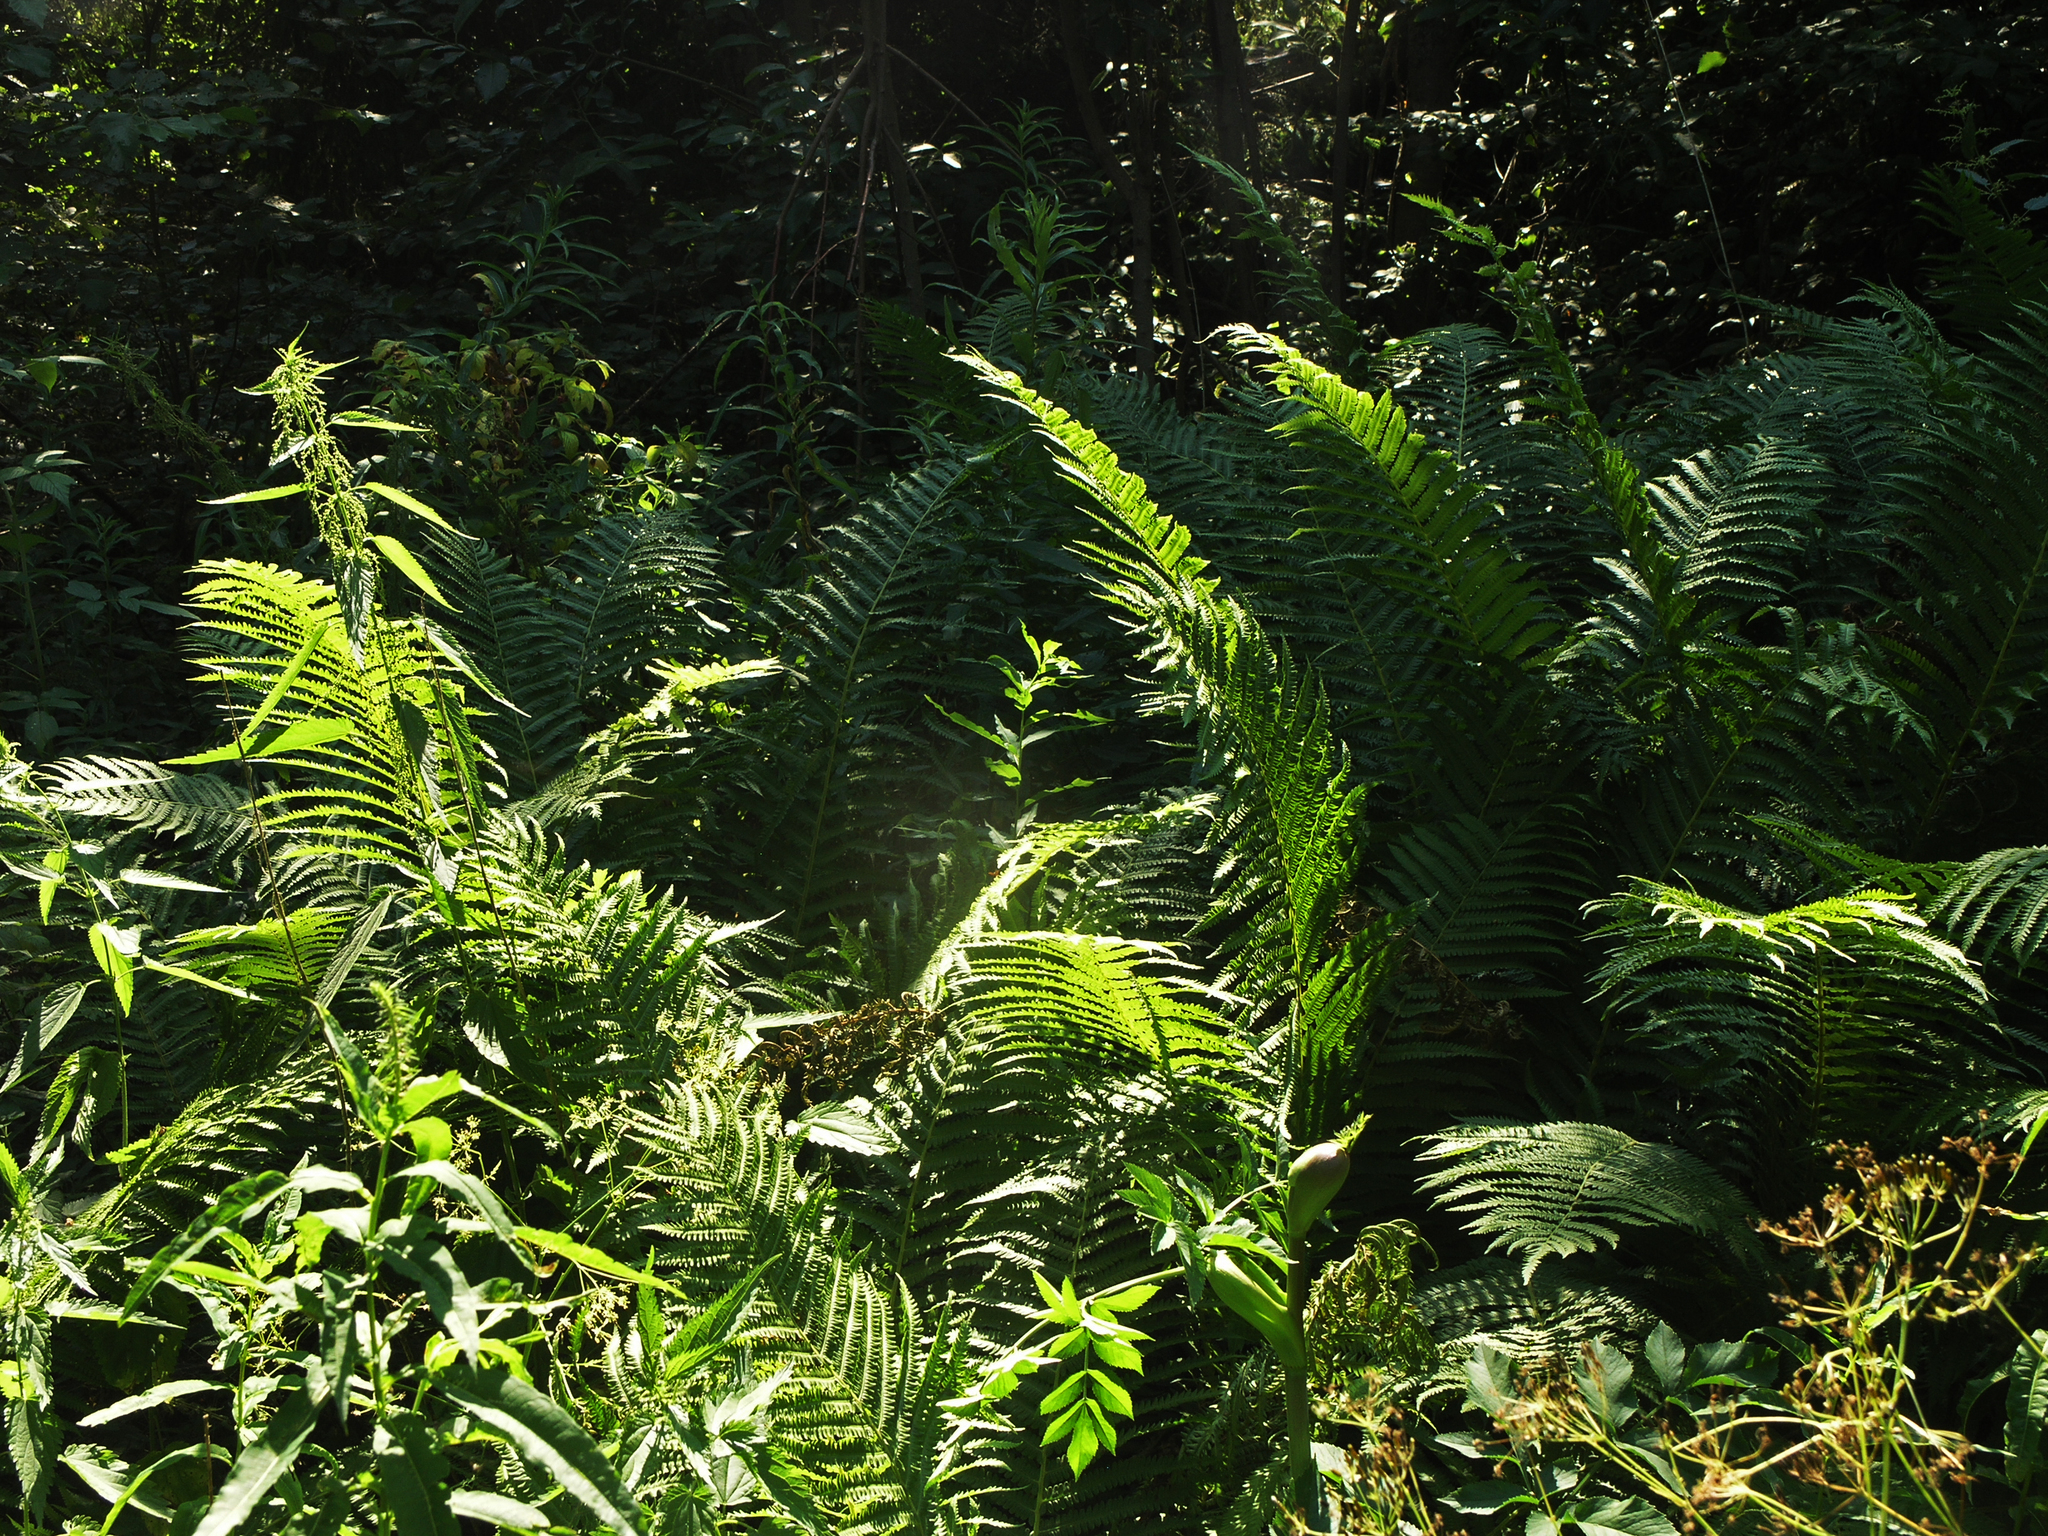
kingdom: Plantae
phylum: Tracheophyta
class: Polypodiopsida
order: Polypodiales
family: Onocleaceae
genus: Matteuccia
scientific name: Matteuccia struthiopteris
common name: Ostrich fern
